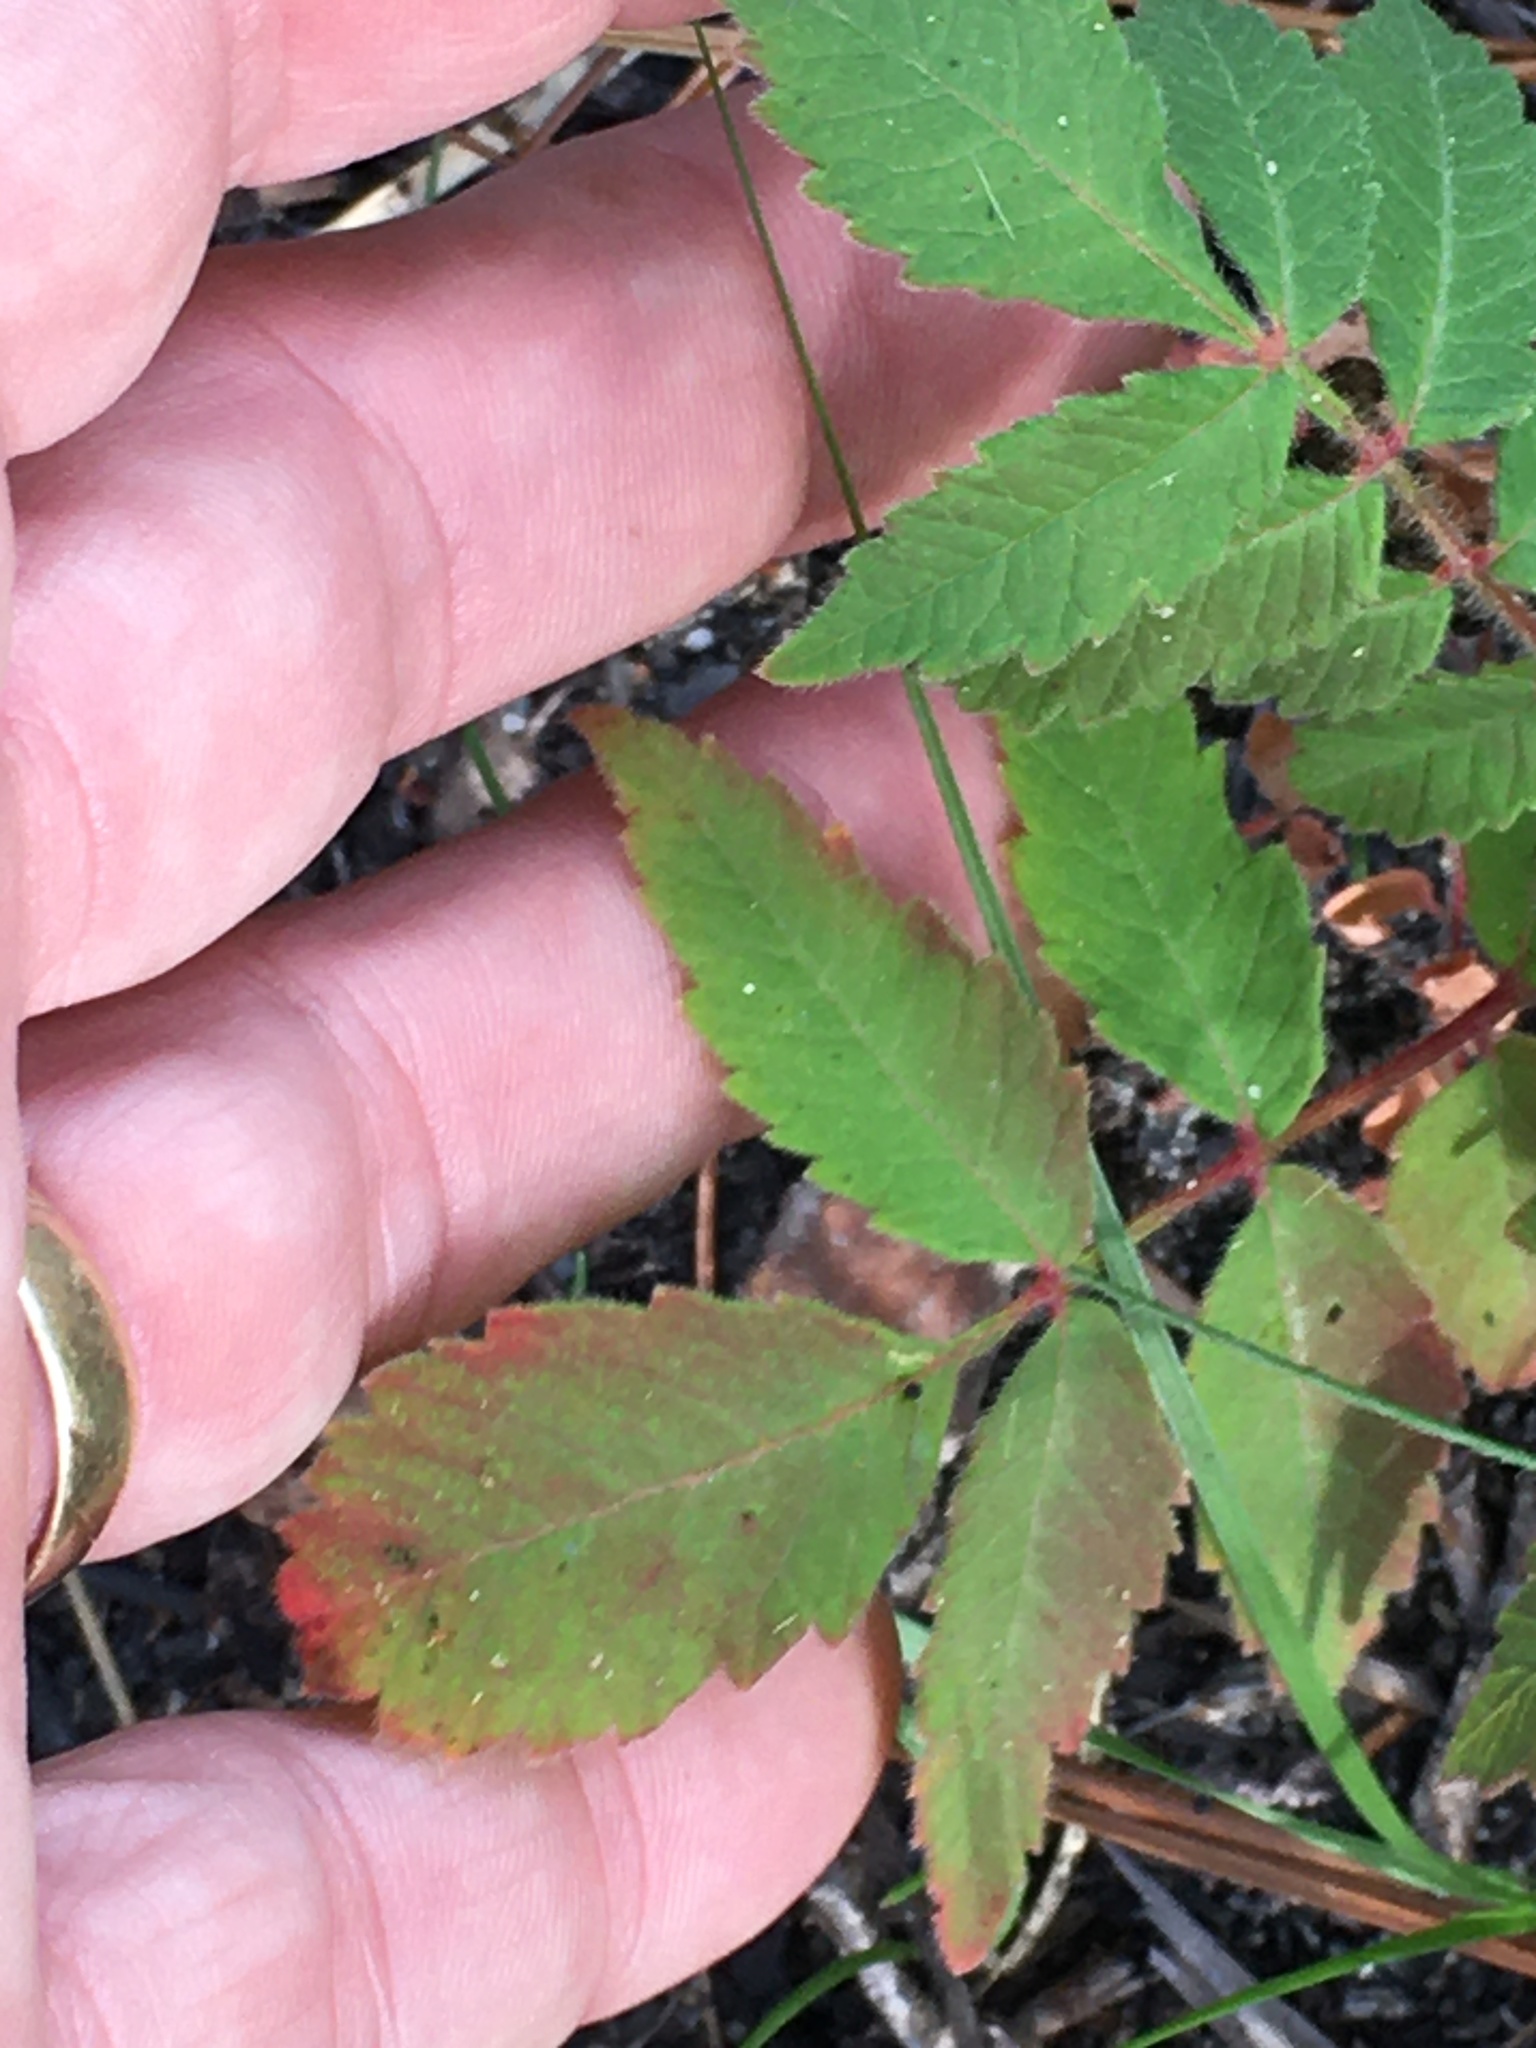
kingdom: Plantae
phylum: Tracheophyta
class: Magnoliopsida
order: Sapindales
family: Anacardiaceae
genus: Rhus
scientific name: Rhus michauxii
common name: Michaux's sumac
